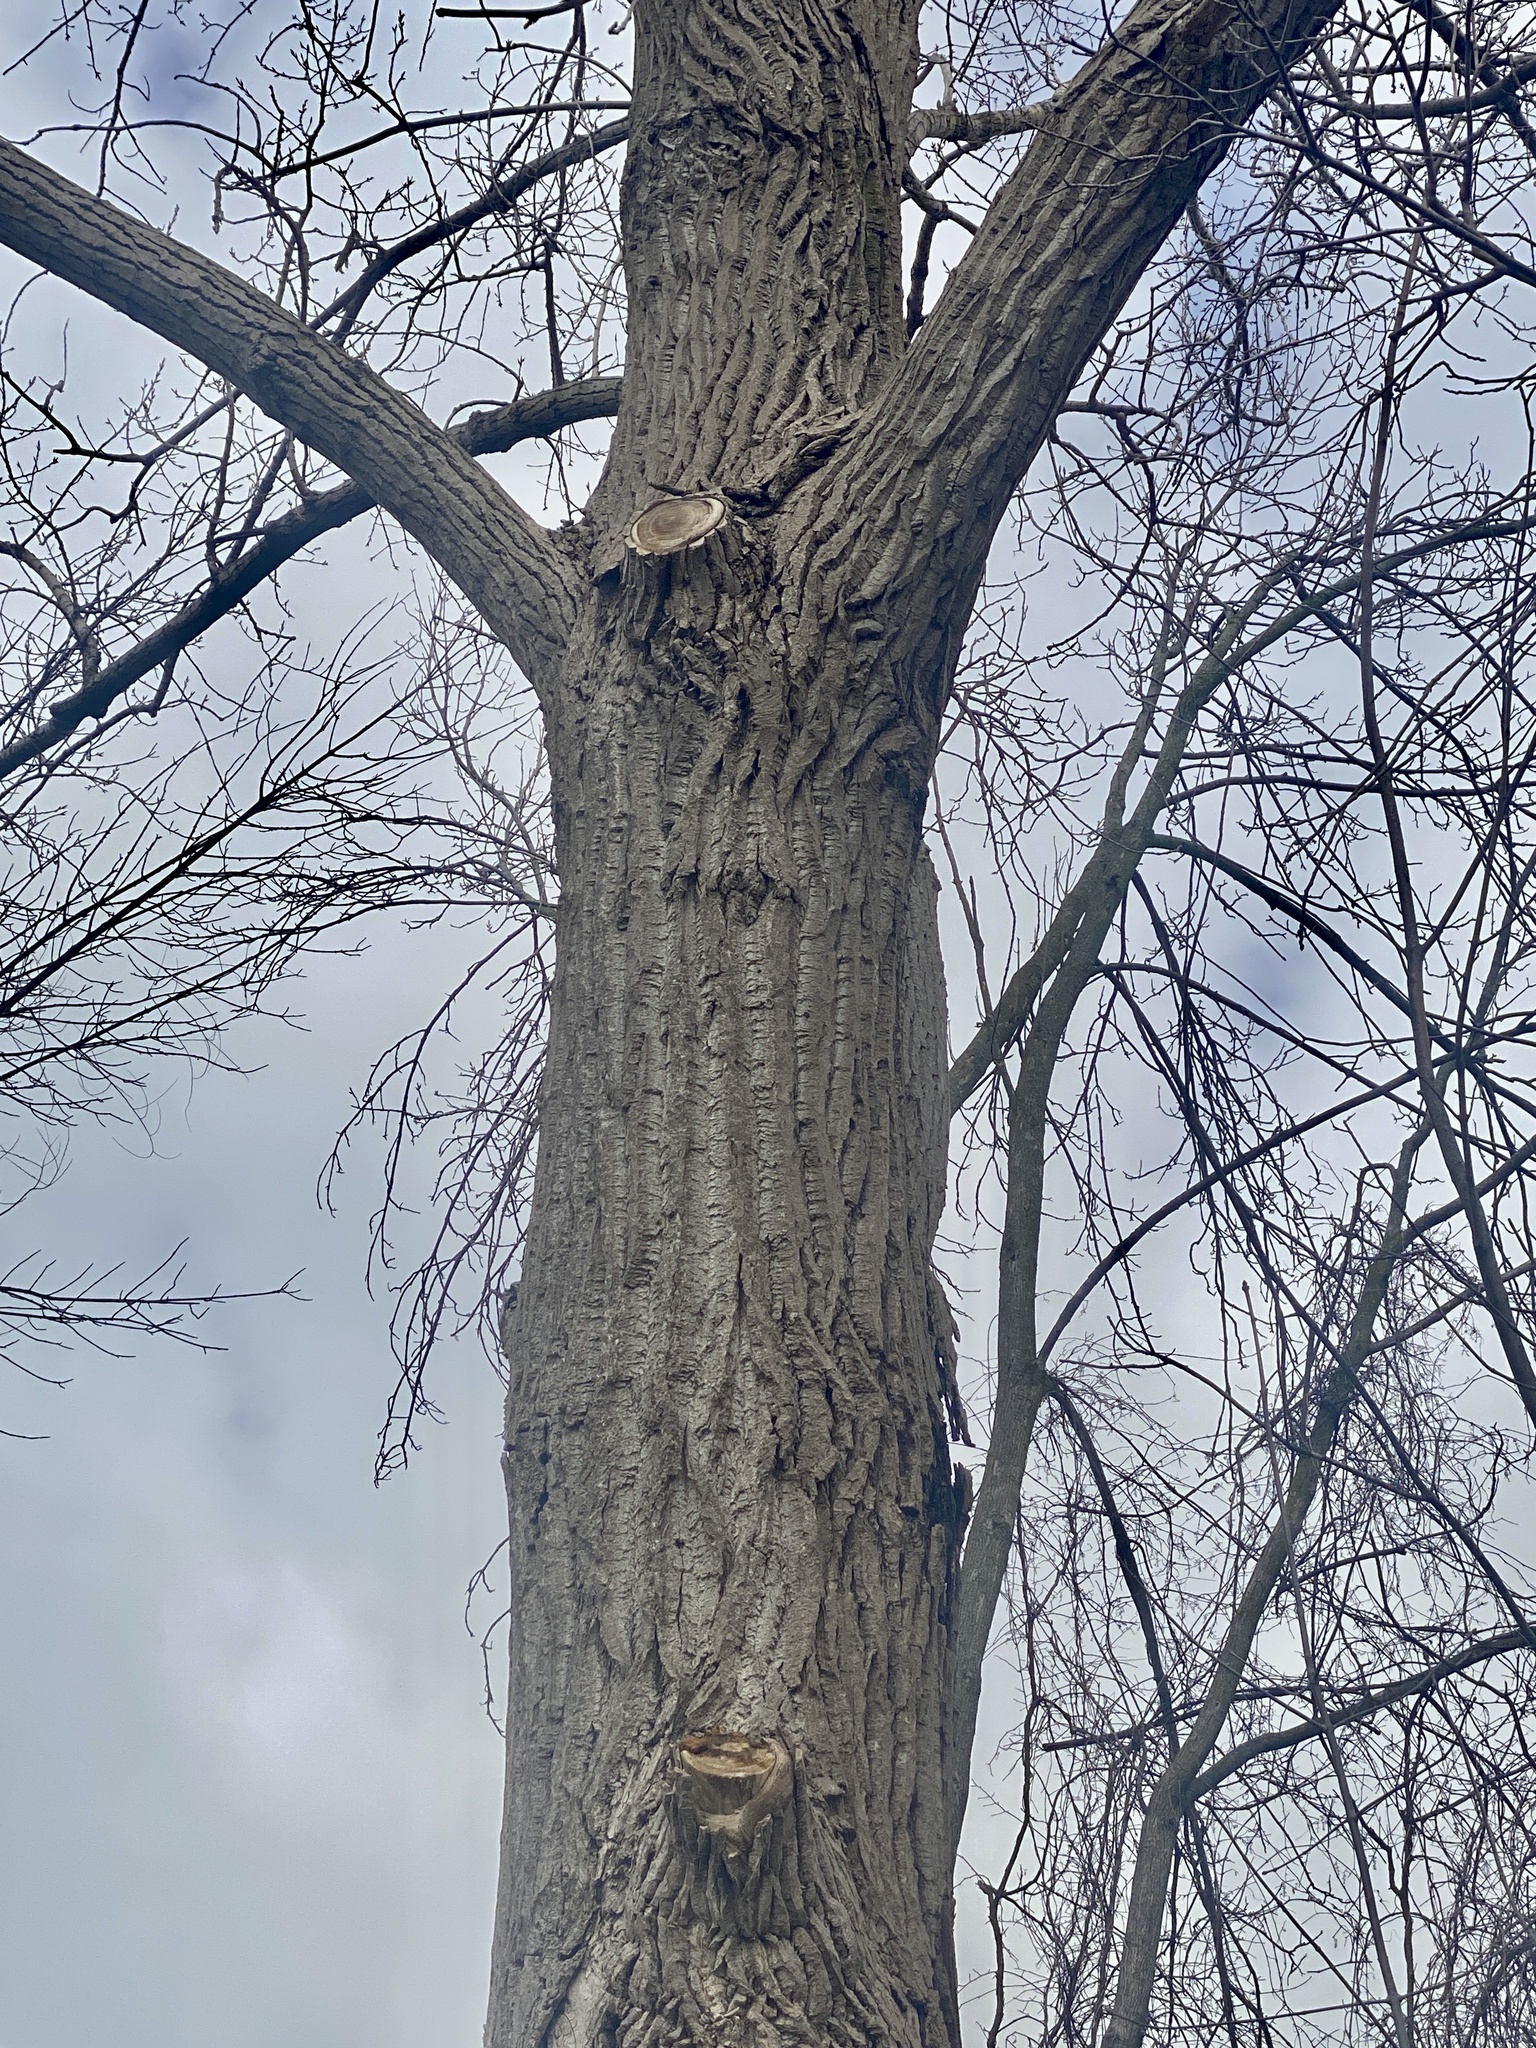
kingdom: Plantae
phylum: Tracheophyta
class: Magnoliopsida
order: Malpighiales
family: Salicaceae
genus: Populus
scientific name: Populus deltoides
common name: Eastern cottonwood
